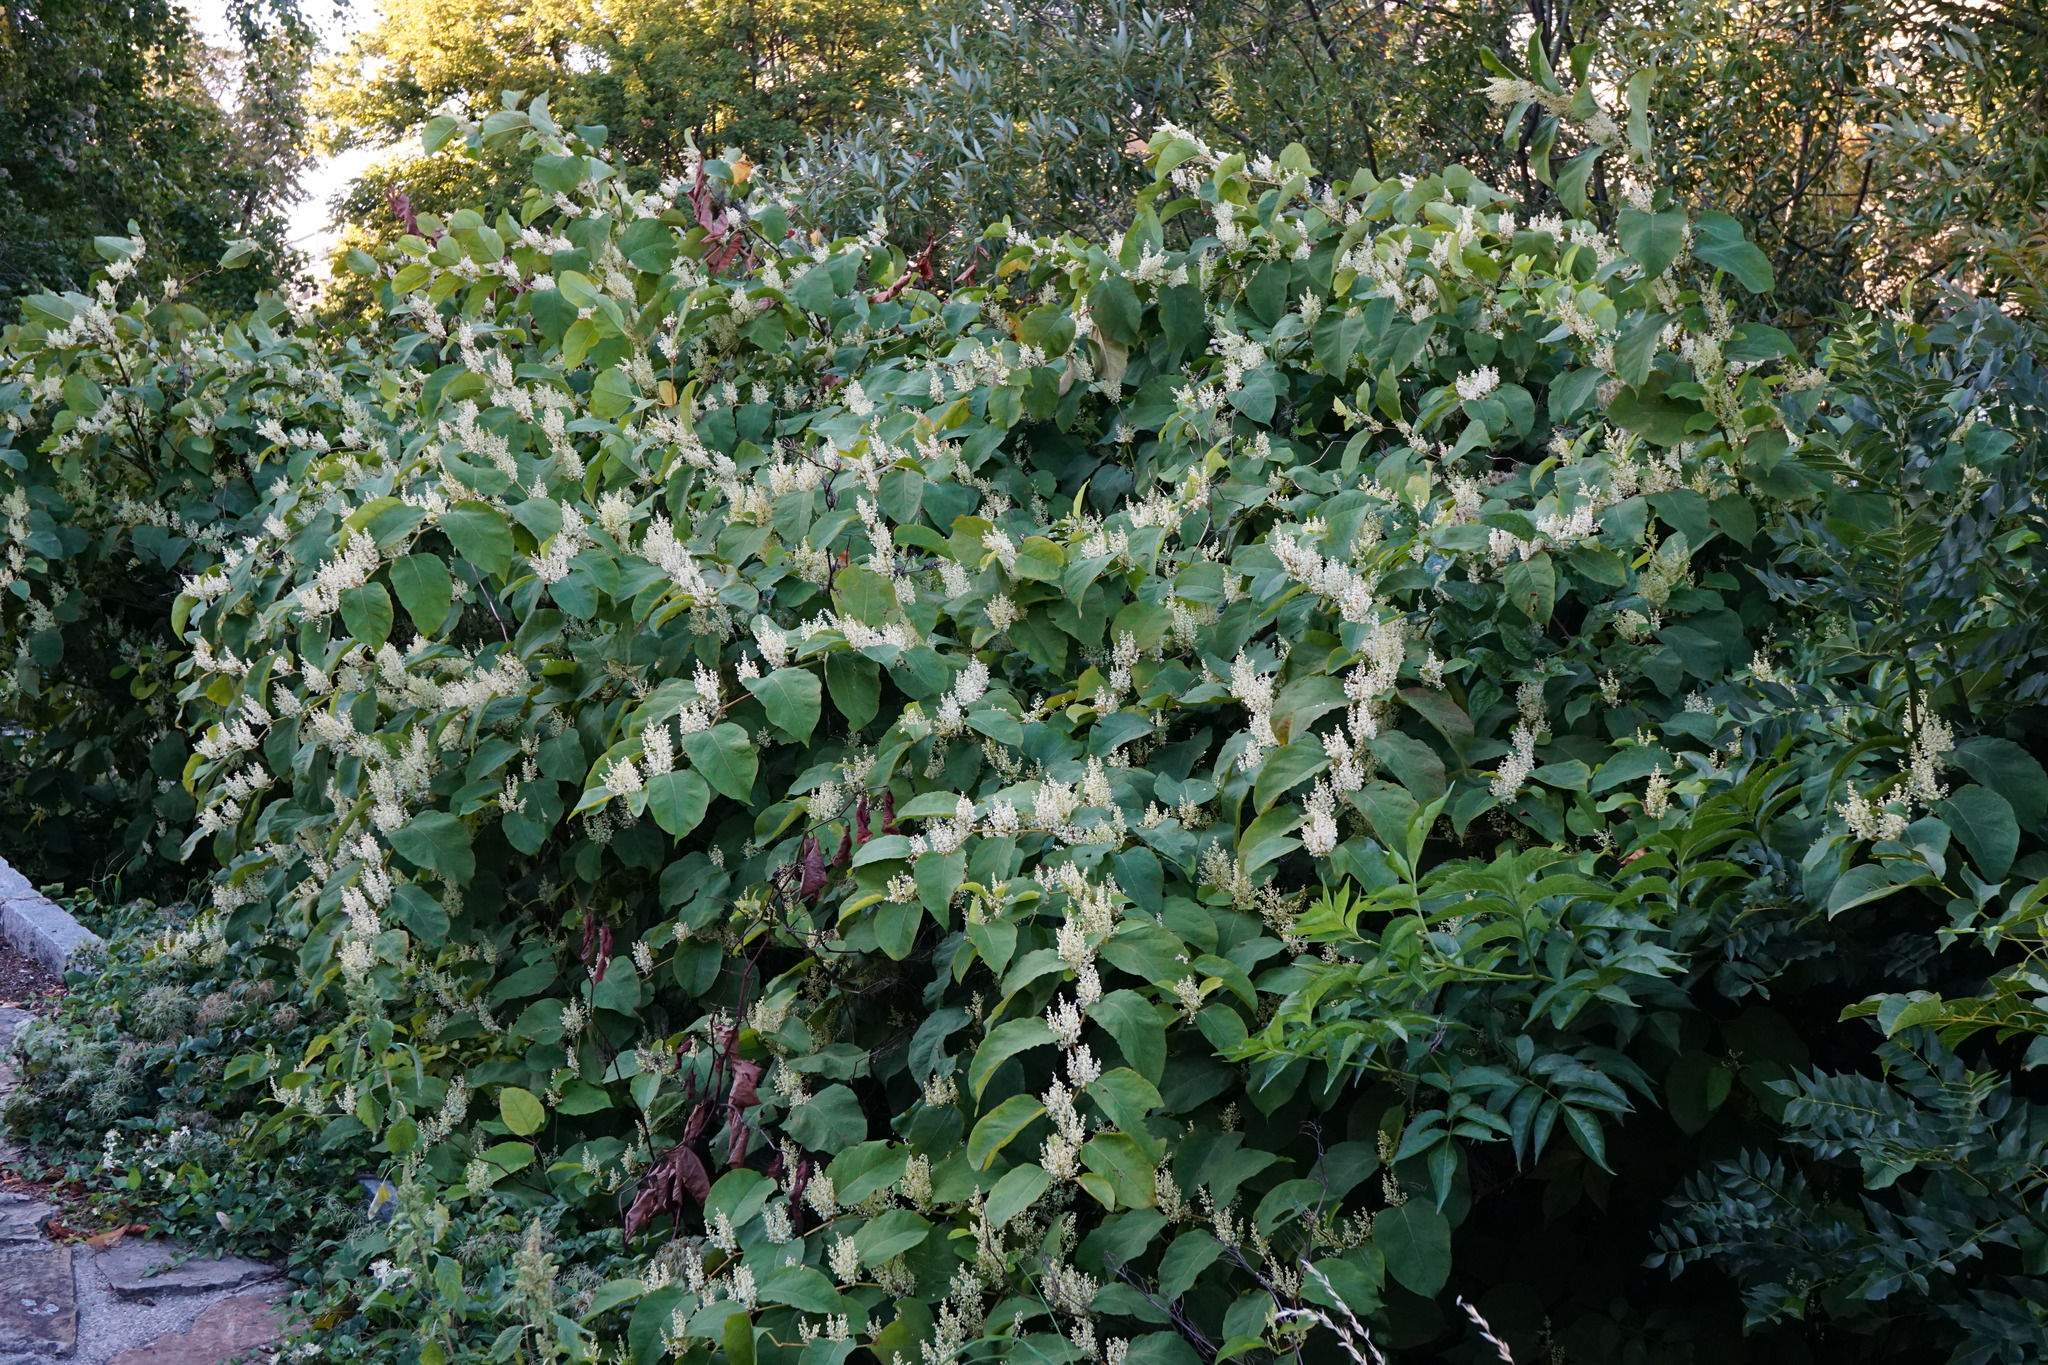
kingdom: Plantae
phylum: Tracheophyta
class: Magnoliopsida
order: Caryophyllales
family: Polygonaceae
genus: Reynoutria
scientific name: Reynoutria bohemica
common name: Bohemian knotweed
